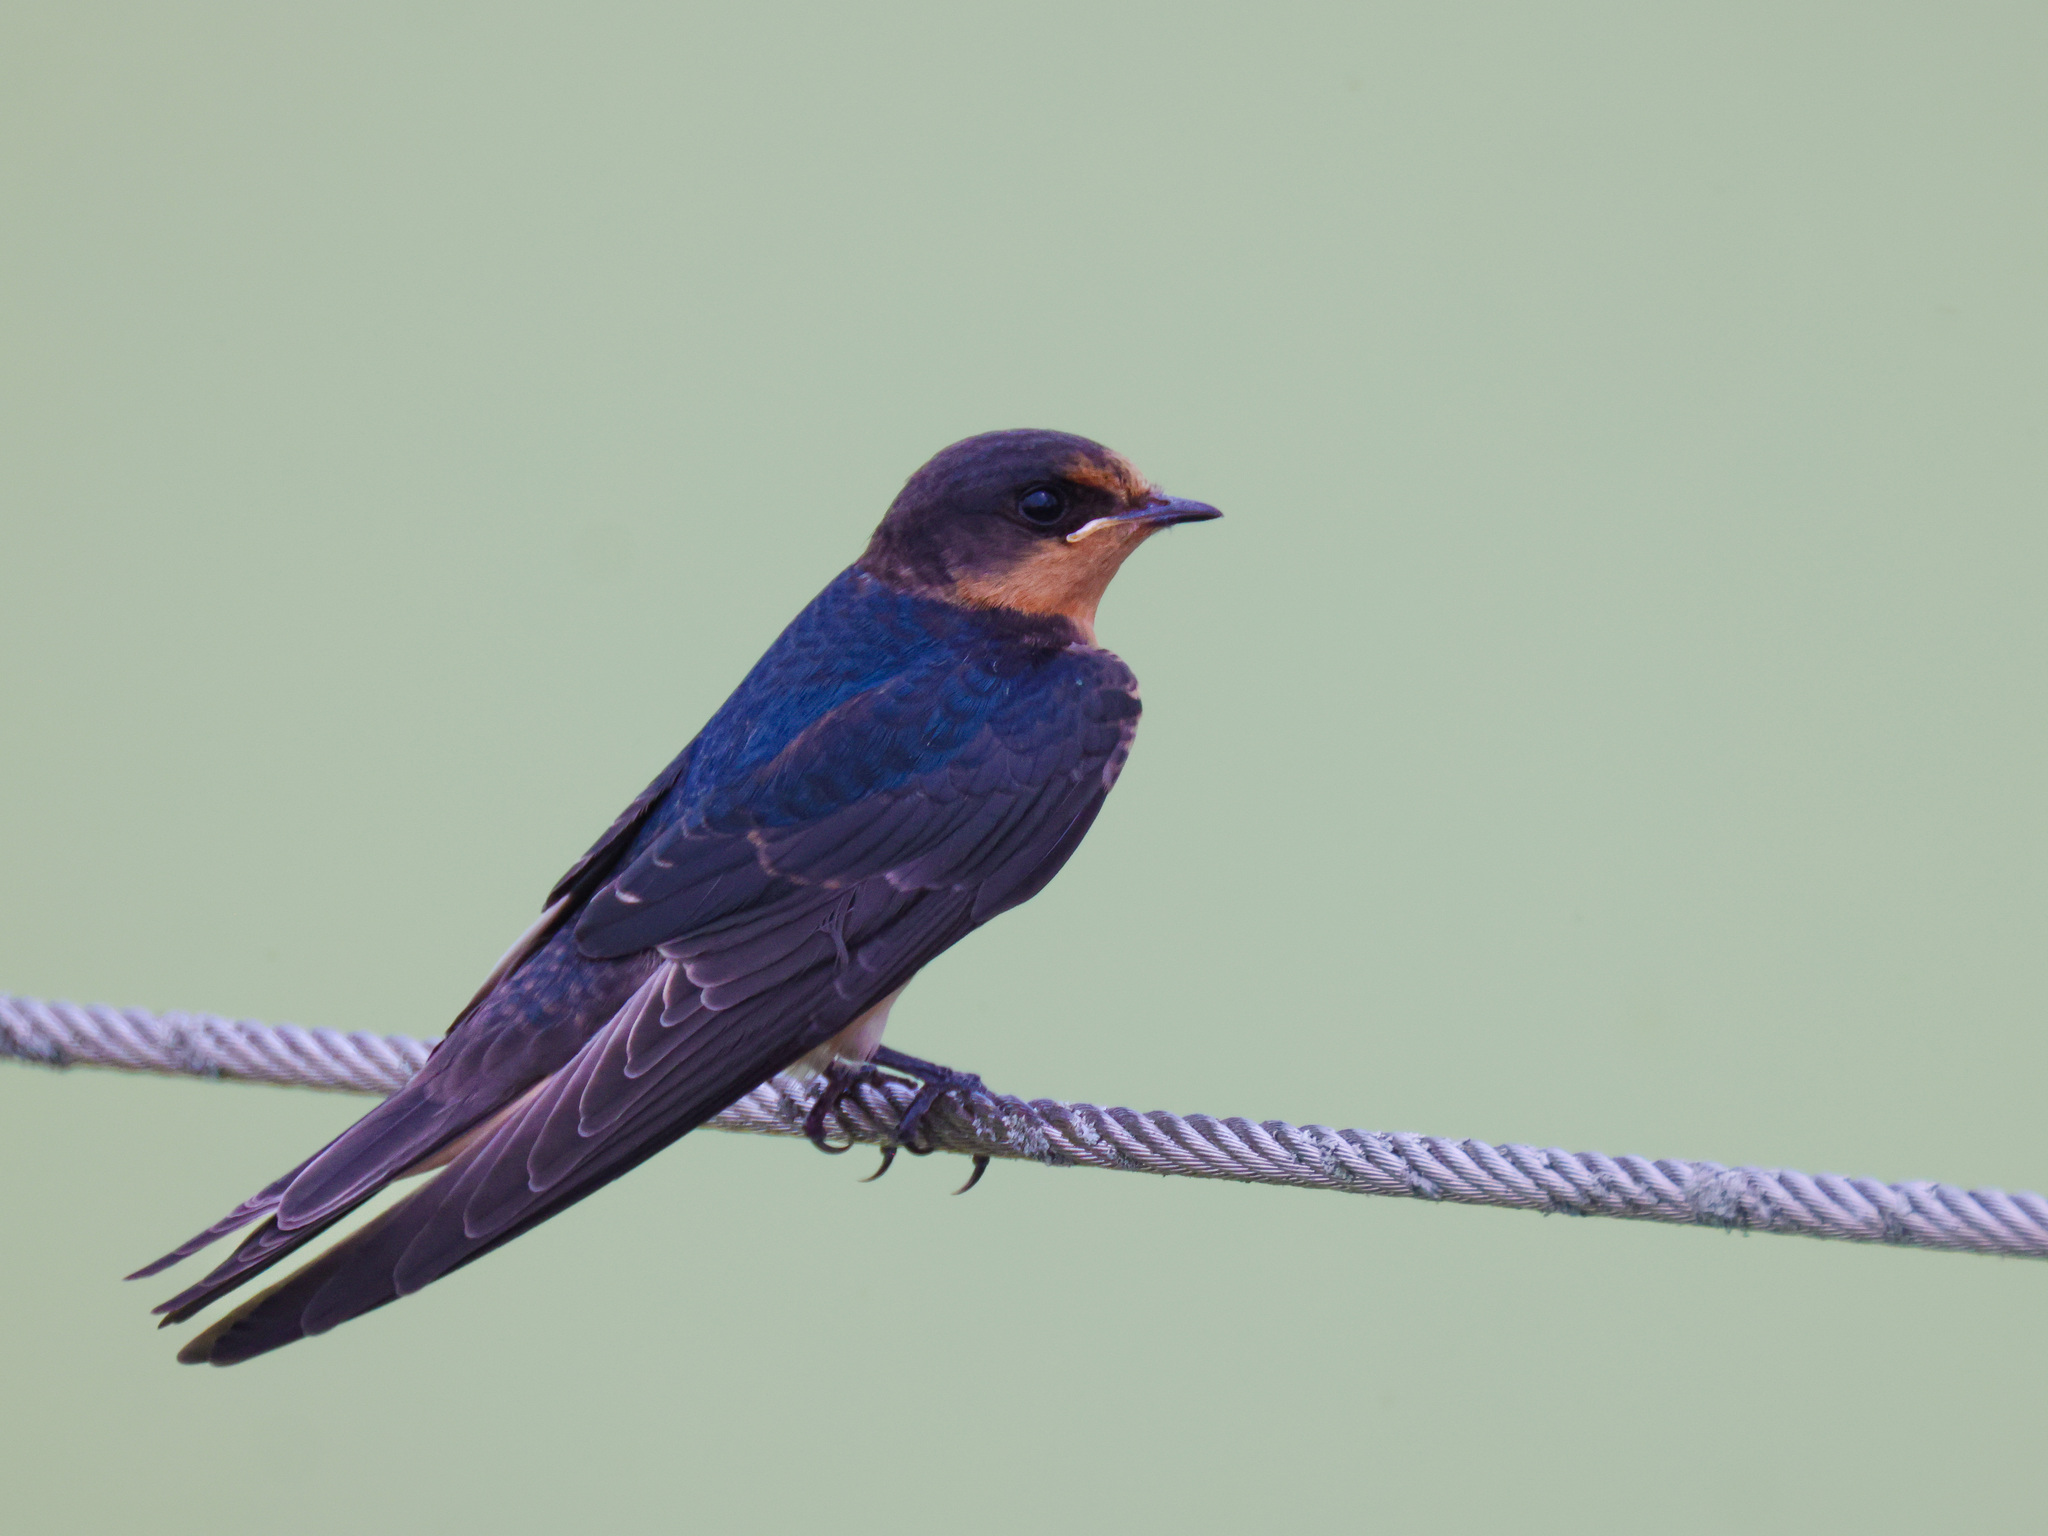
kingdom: Animalia
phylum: Chordata
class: Aves
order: Passeriformes
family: Hirundinidae
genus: Hirundo
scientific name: Hirundo rustica
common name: Barn swallow
